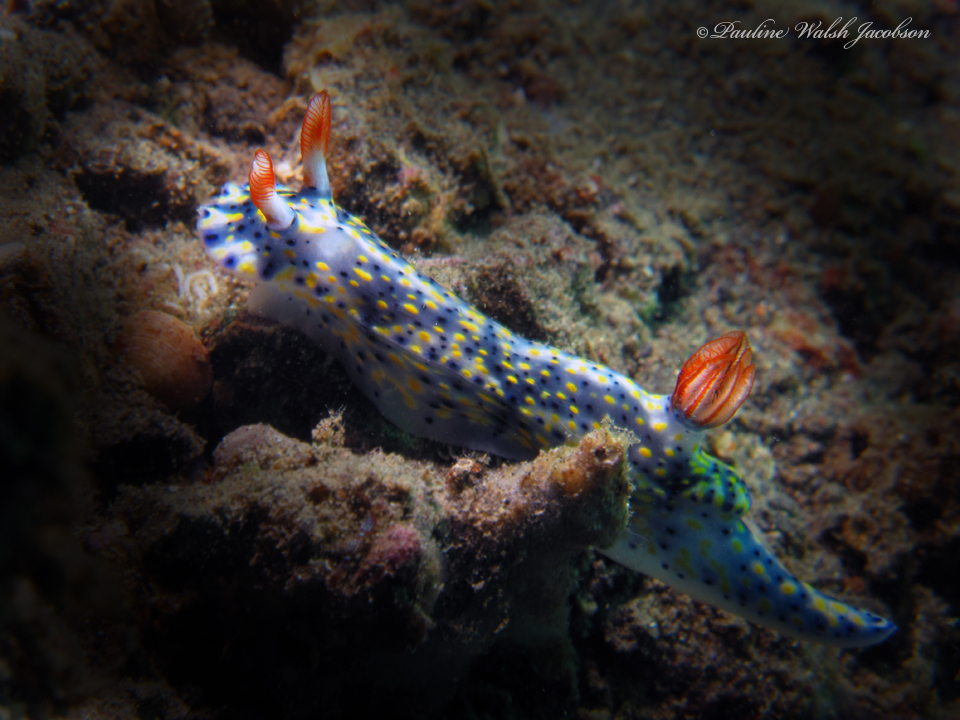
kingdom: Animalia
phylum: Mollusca
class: Gastropoda
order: Nudibranchia
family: Chromodorididae
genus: Hypselodoris
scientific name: Hypselodoris infucata
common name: Mottled dorid
